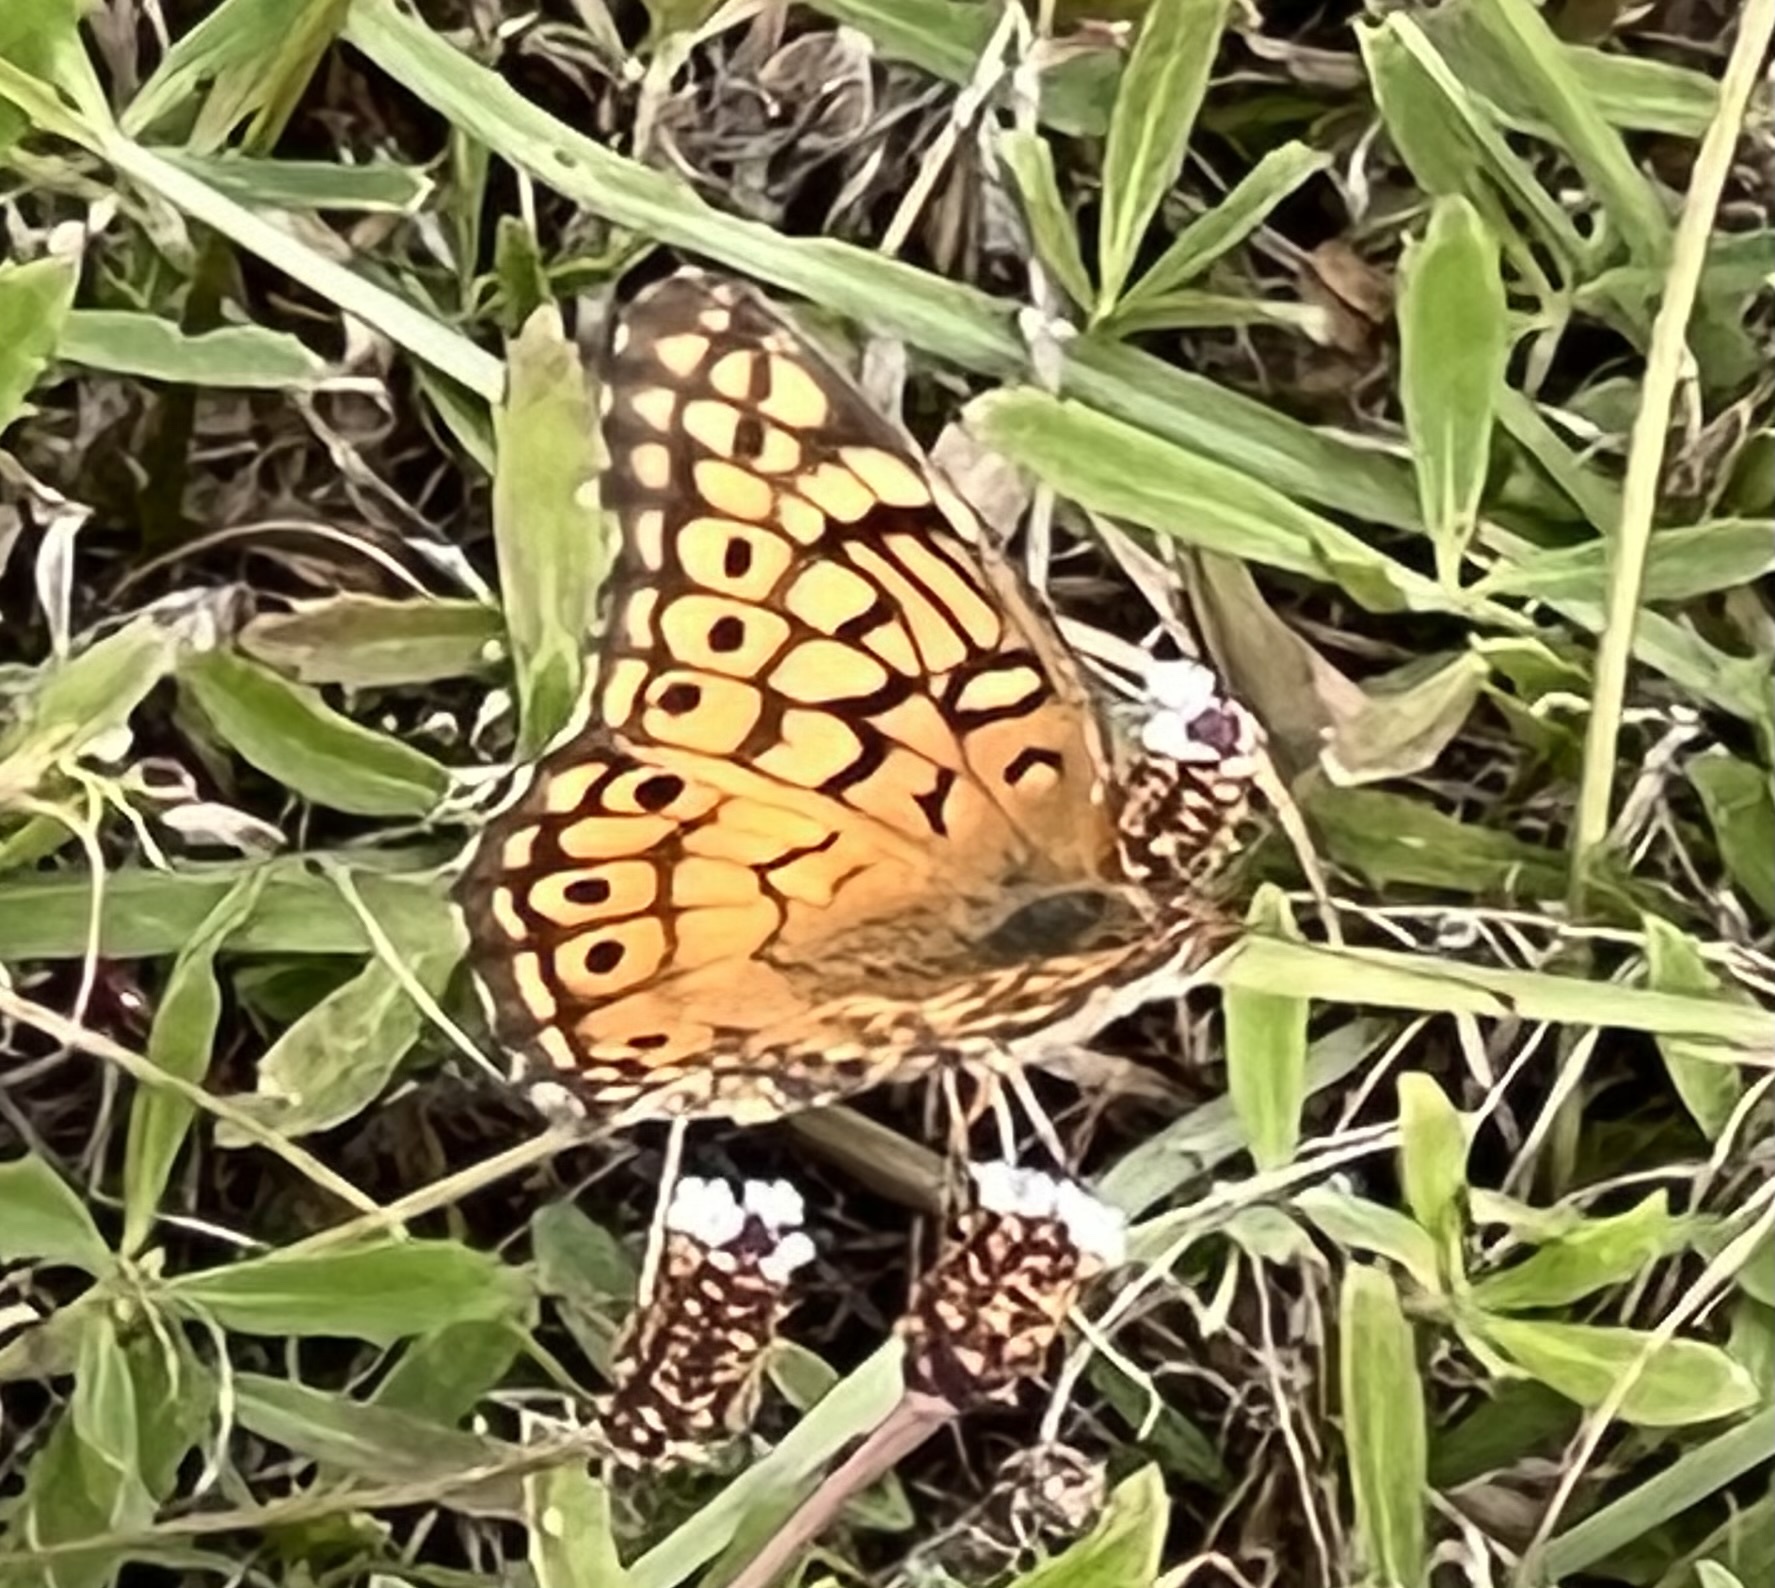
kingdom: Animalia
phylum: Arthropoda
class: Insecta
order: Lepidoptera
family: Nymphalidae
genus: Euptoieta
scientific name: Euptoieta claudia
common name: Variegated fritillary
